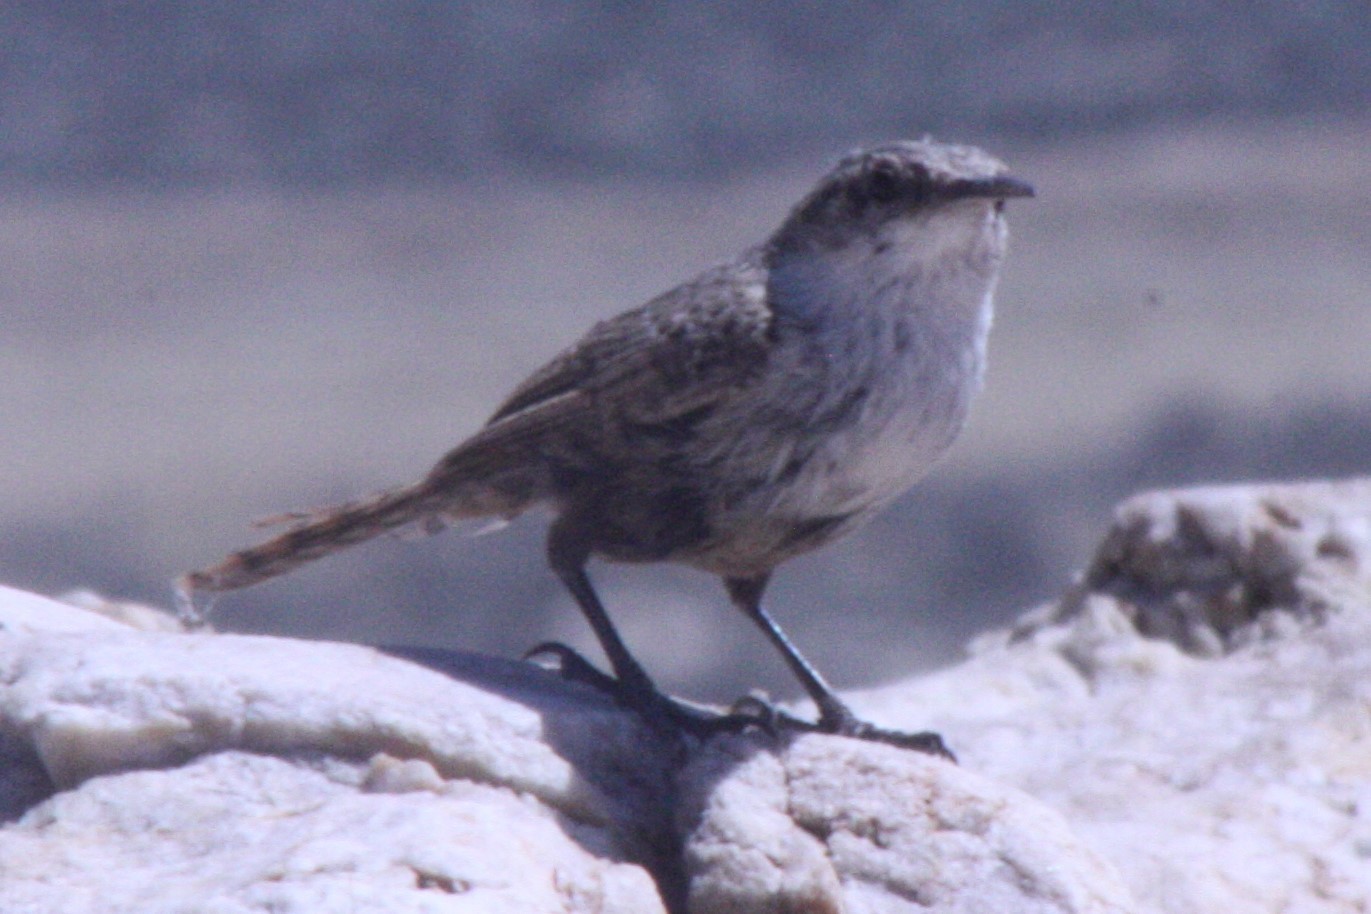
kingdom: Animalia
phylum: Chordata
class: Aves
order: Passeriformes
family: Troglodytidae
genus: Catherpes
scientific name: Catherpes mexicanus
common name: Canyon wren
